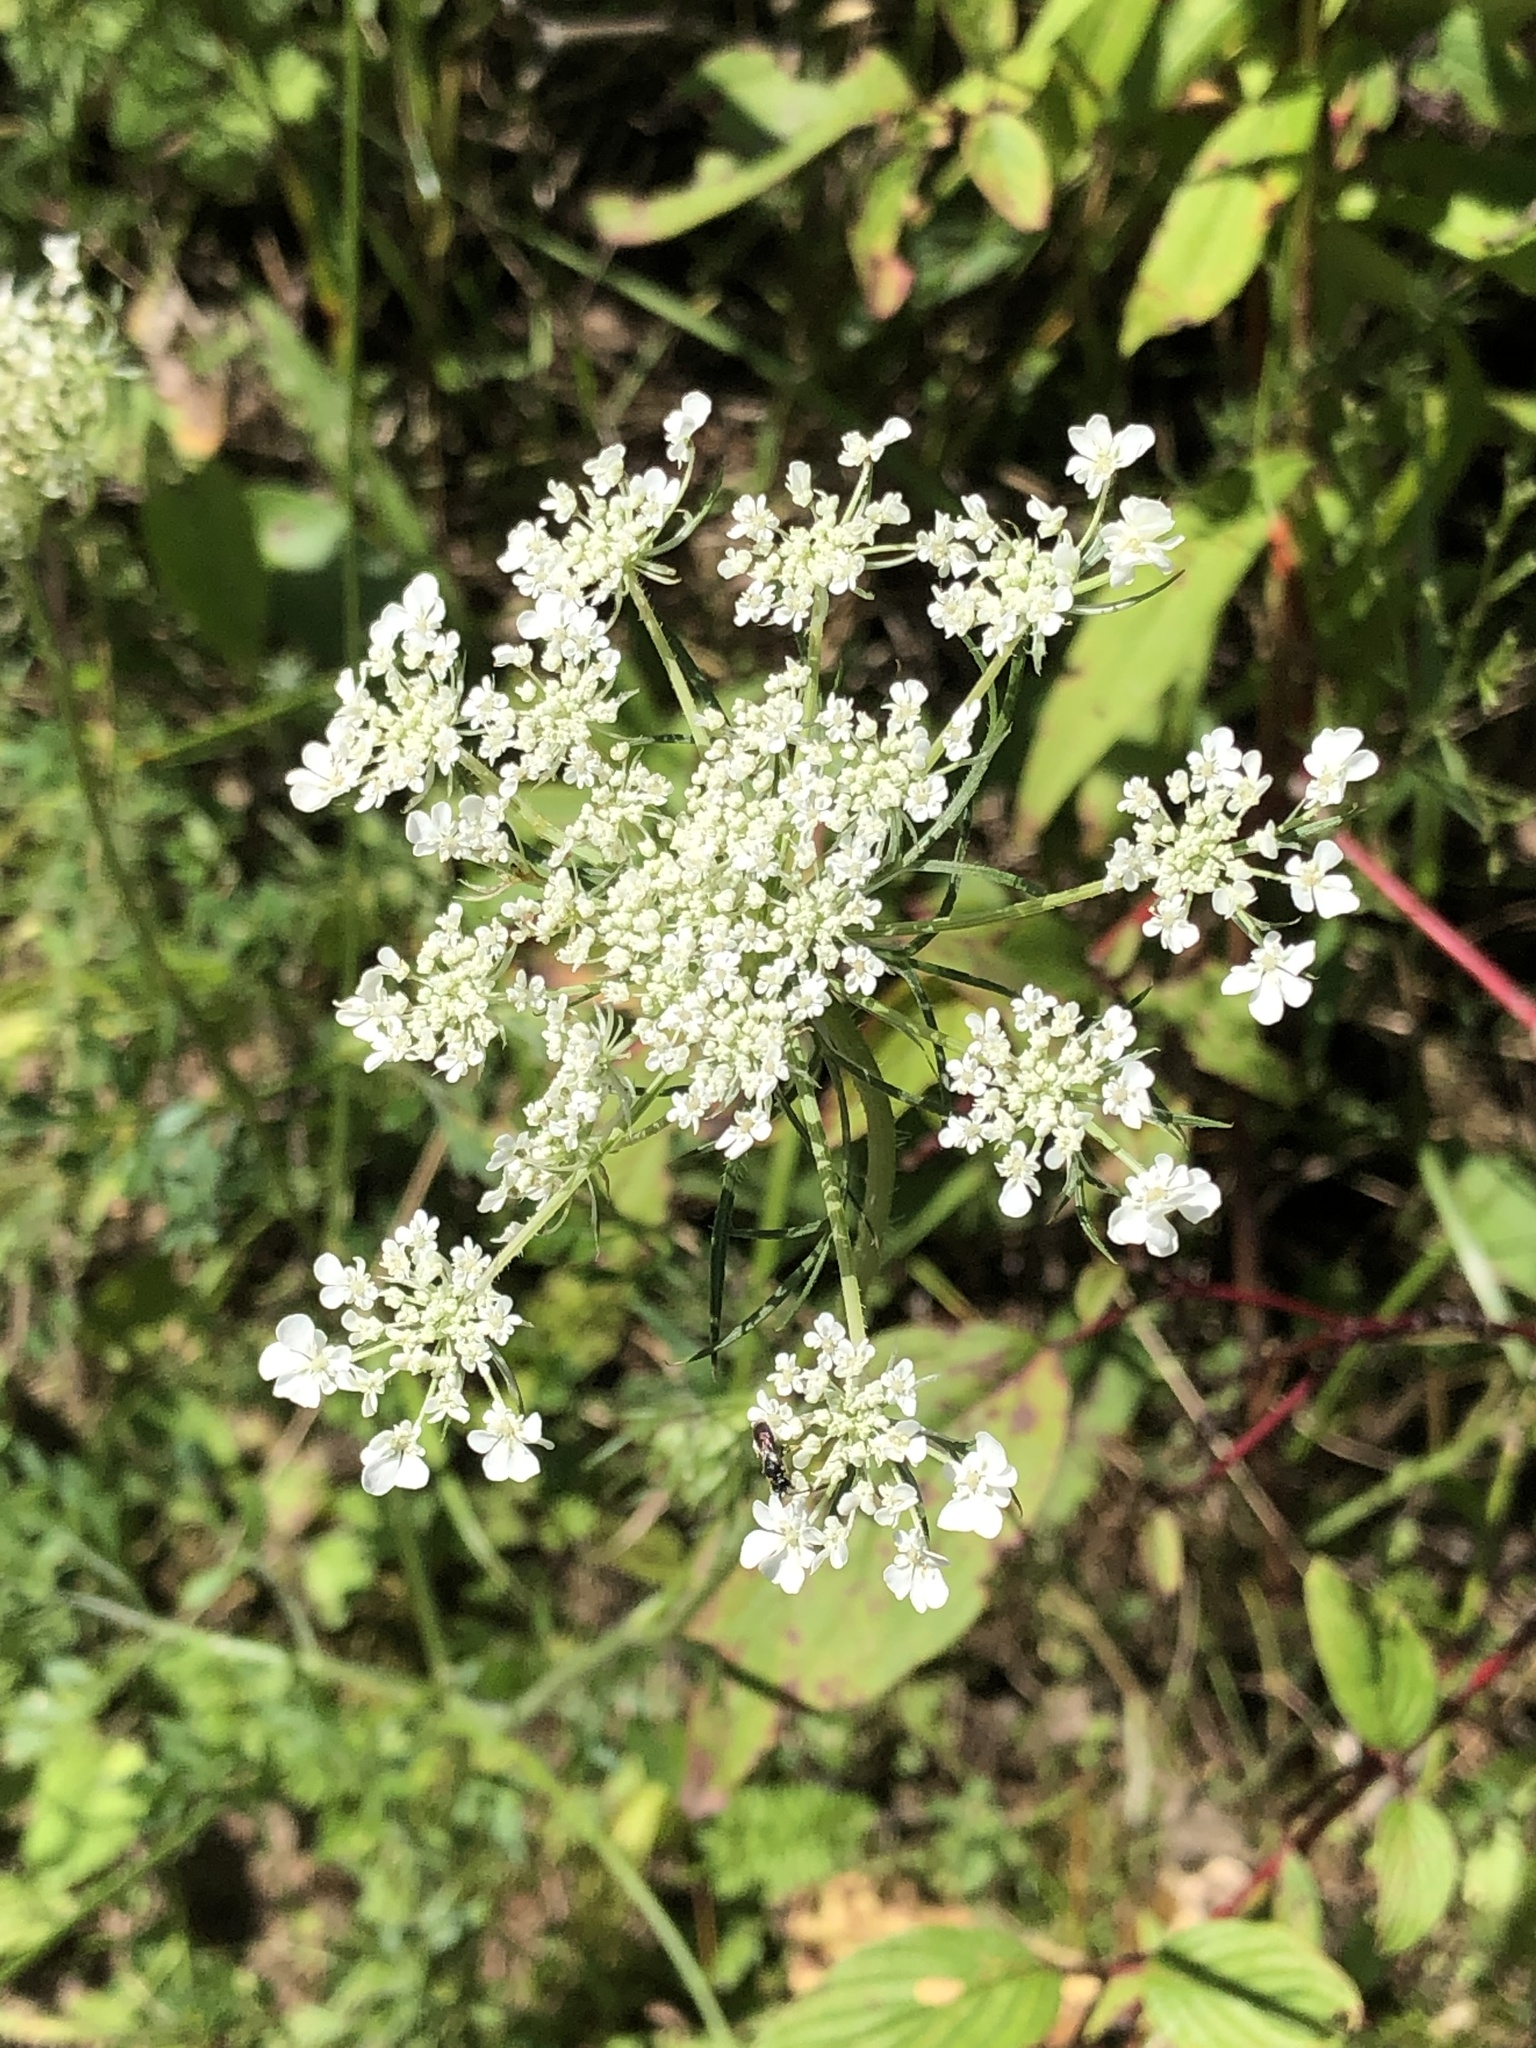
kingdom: Plantae
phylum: Tracheophyta
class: Magnoliopsida
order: Apiales
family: Apiaceae
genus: Daucus
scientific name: Daucus carota
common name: Wild carrot
